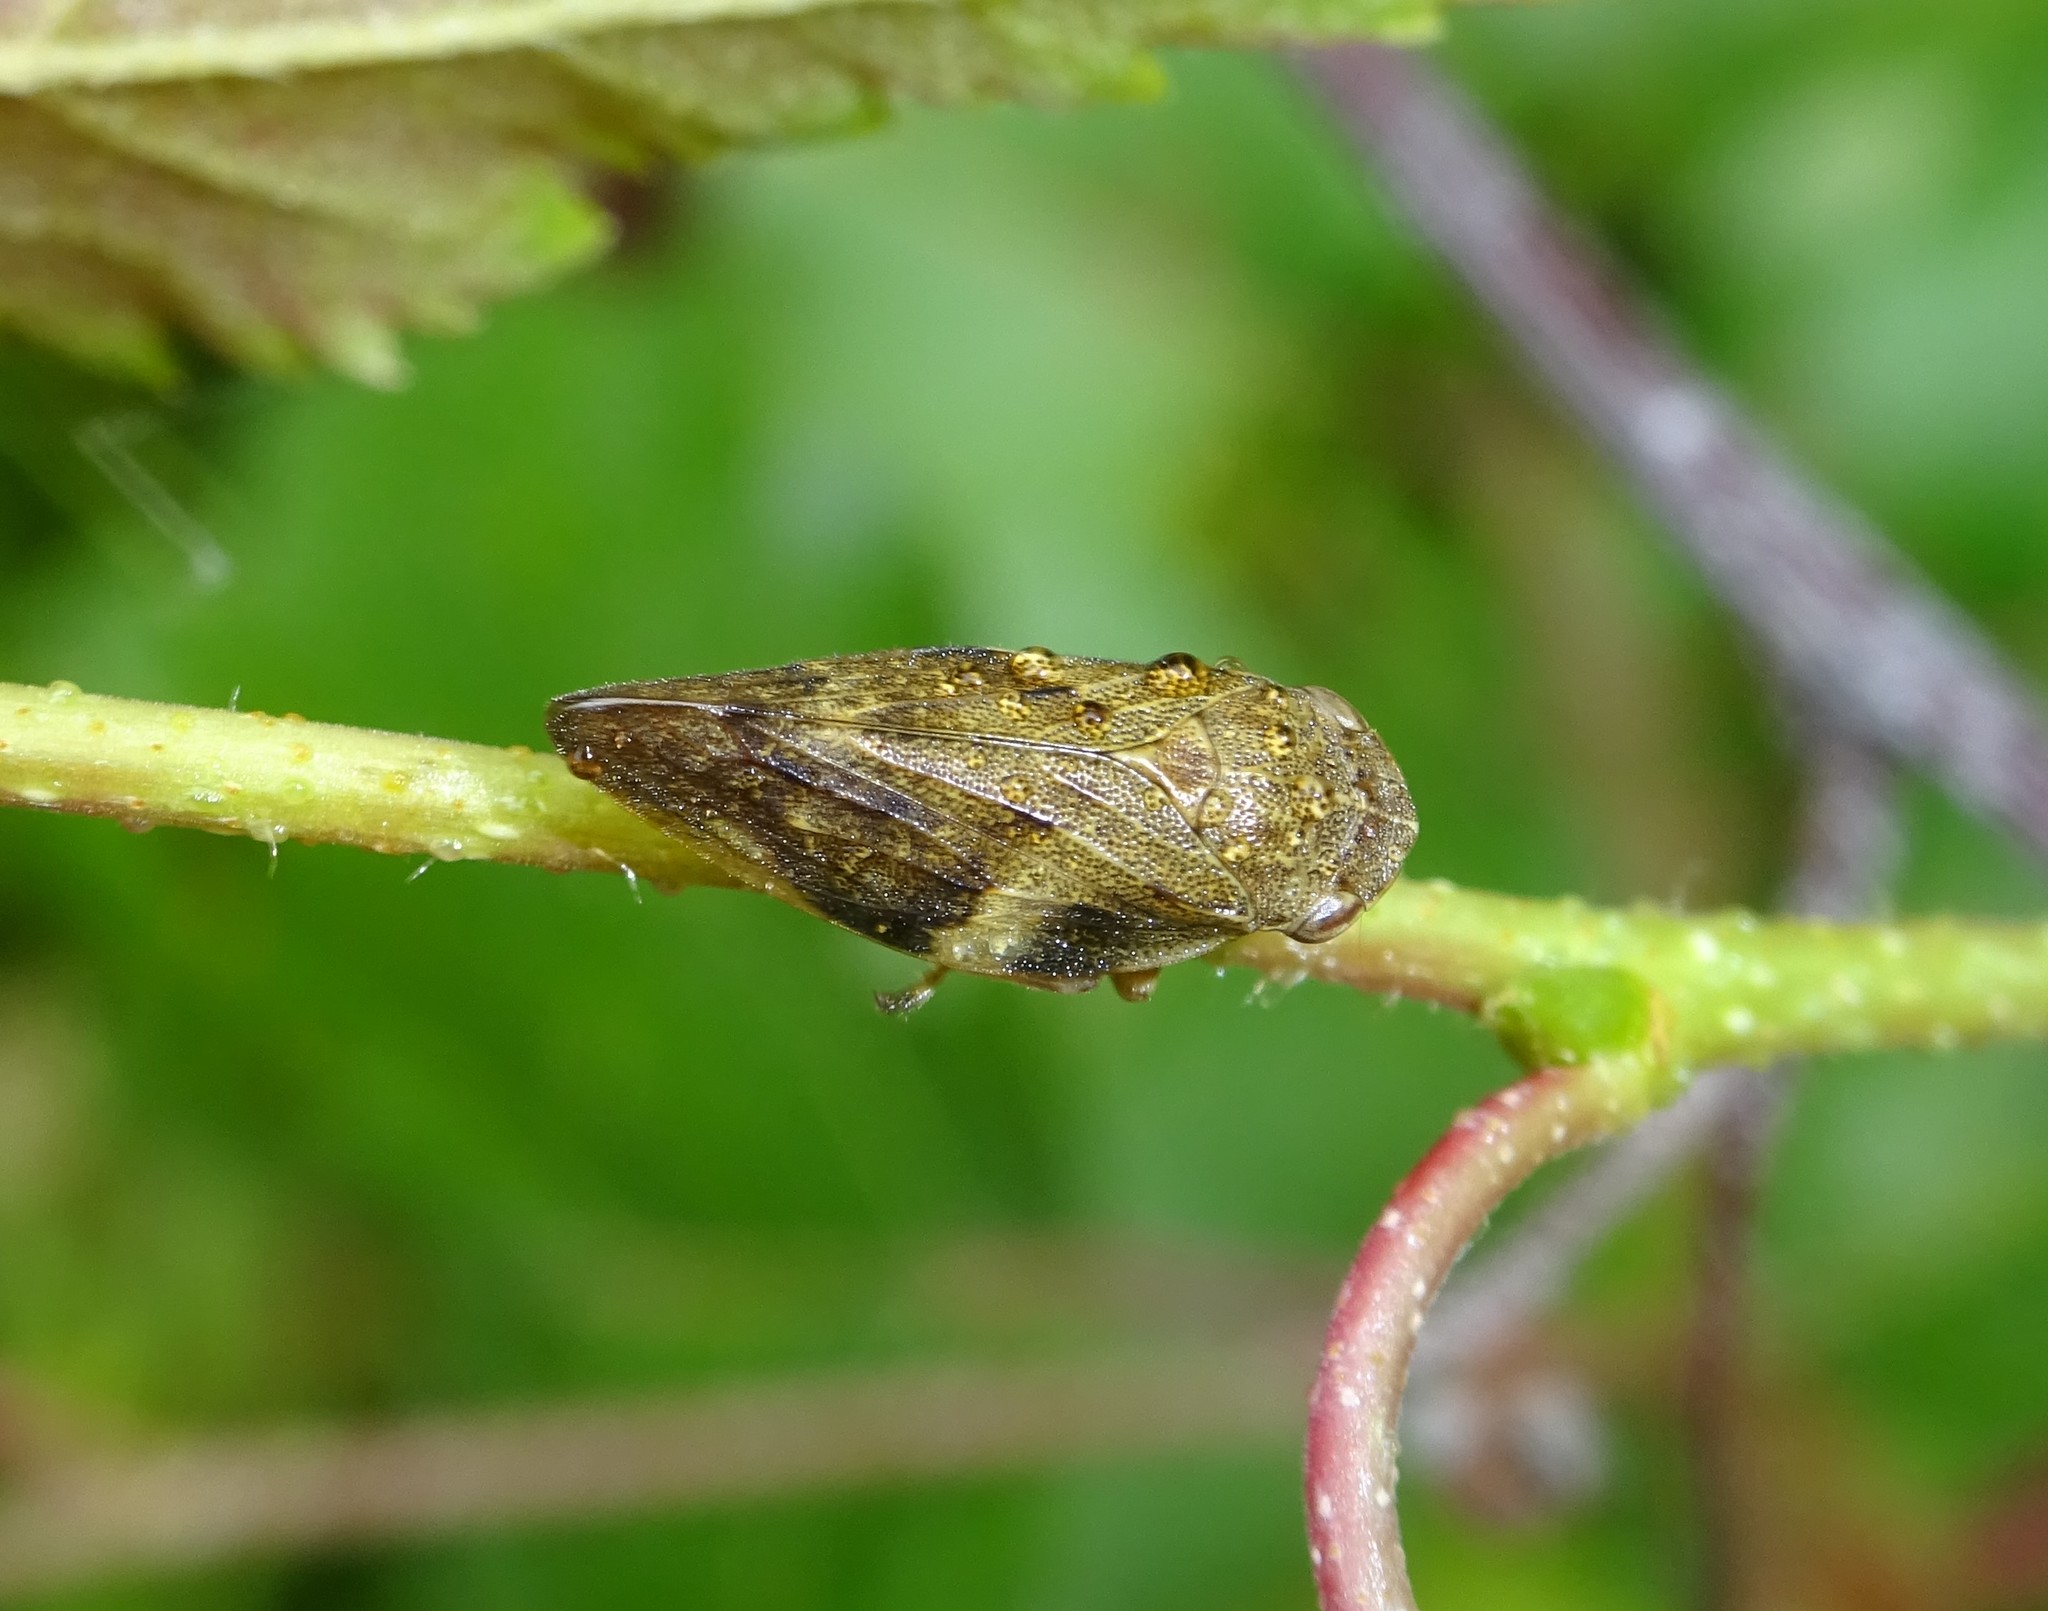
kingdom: Animalia
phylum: Arthropoda
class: Insecta
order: Hemiptera
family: Aphrophoridae
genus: Aphrophora
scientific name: Aphrophora alni
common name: European alder spittlebug
